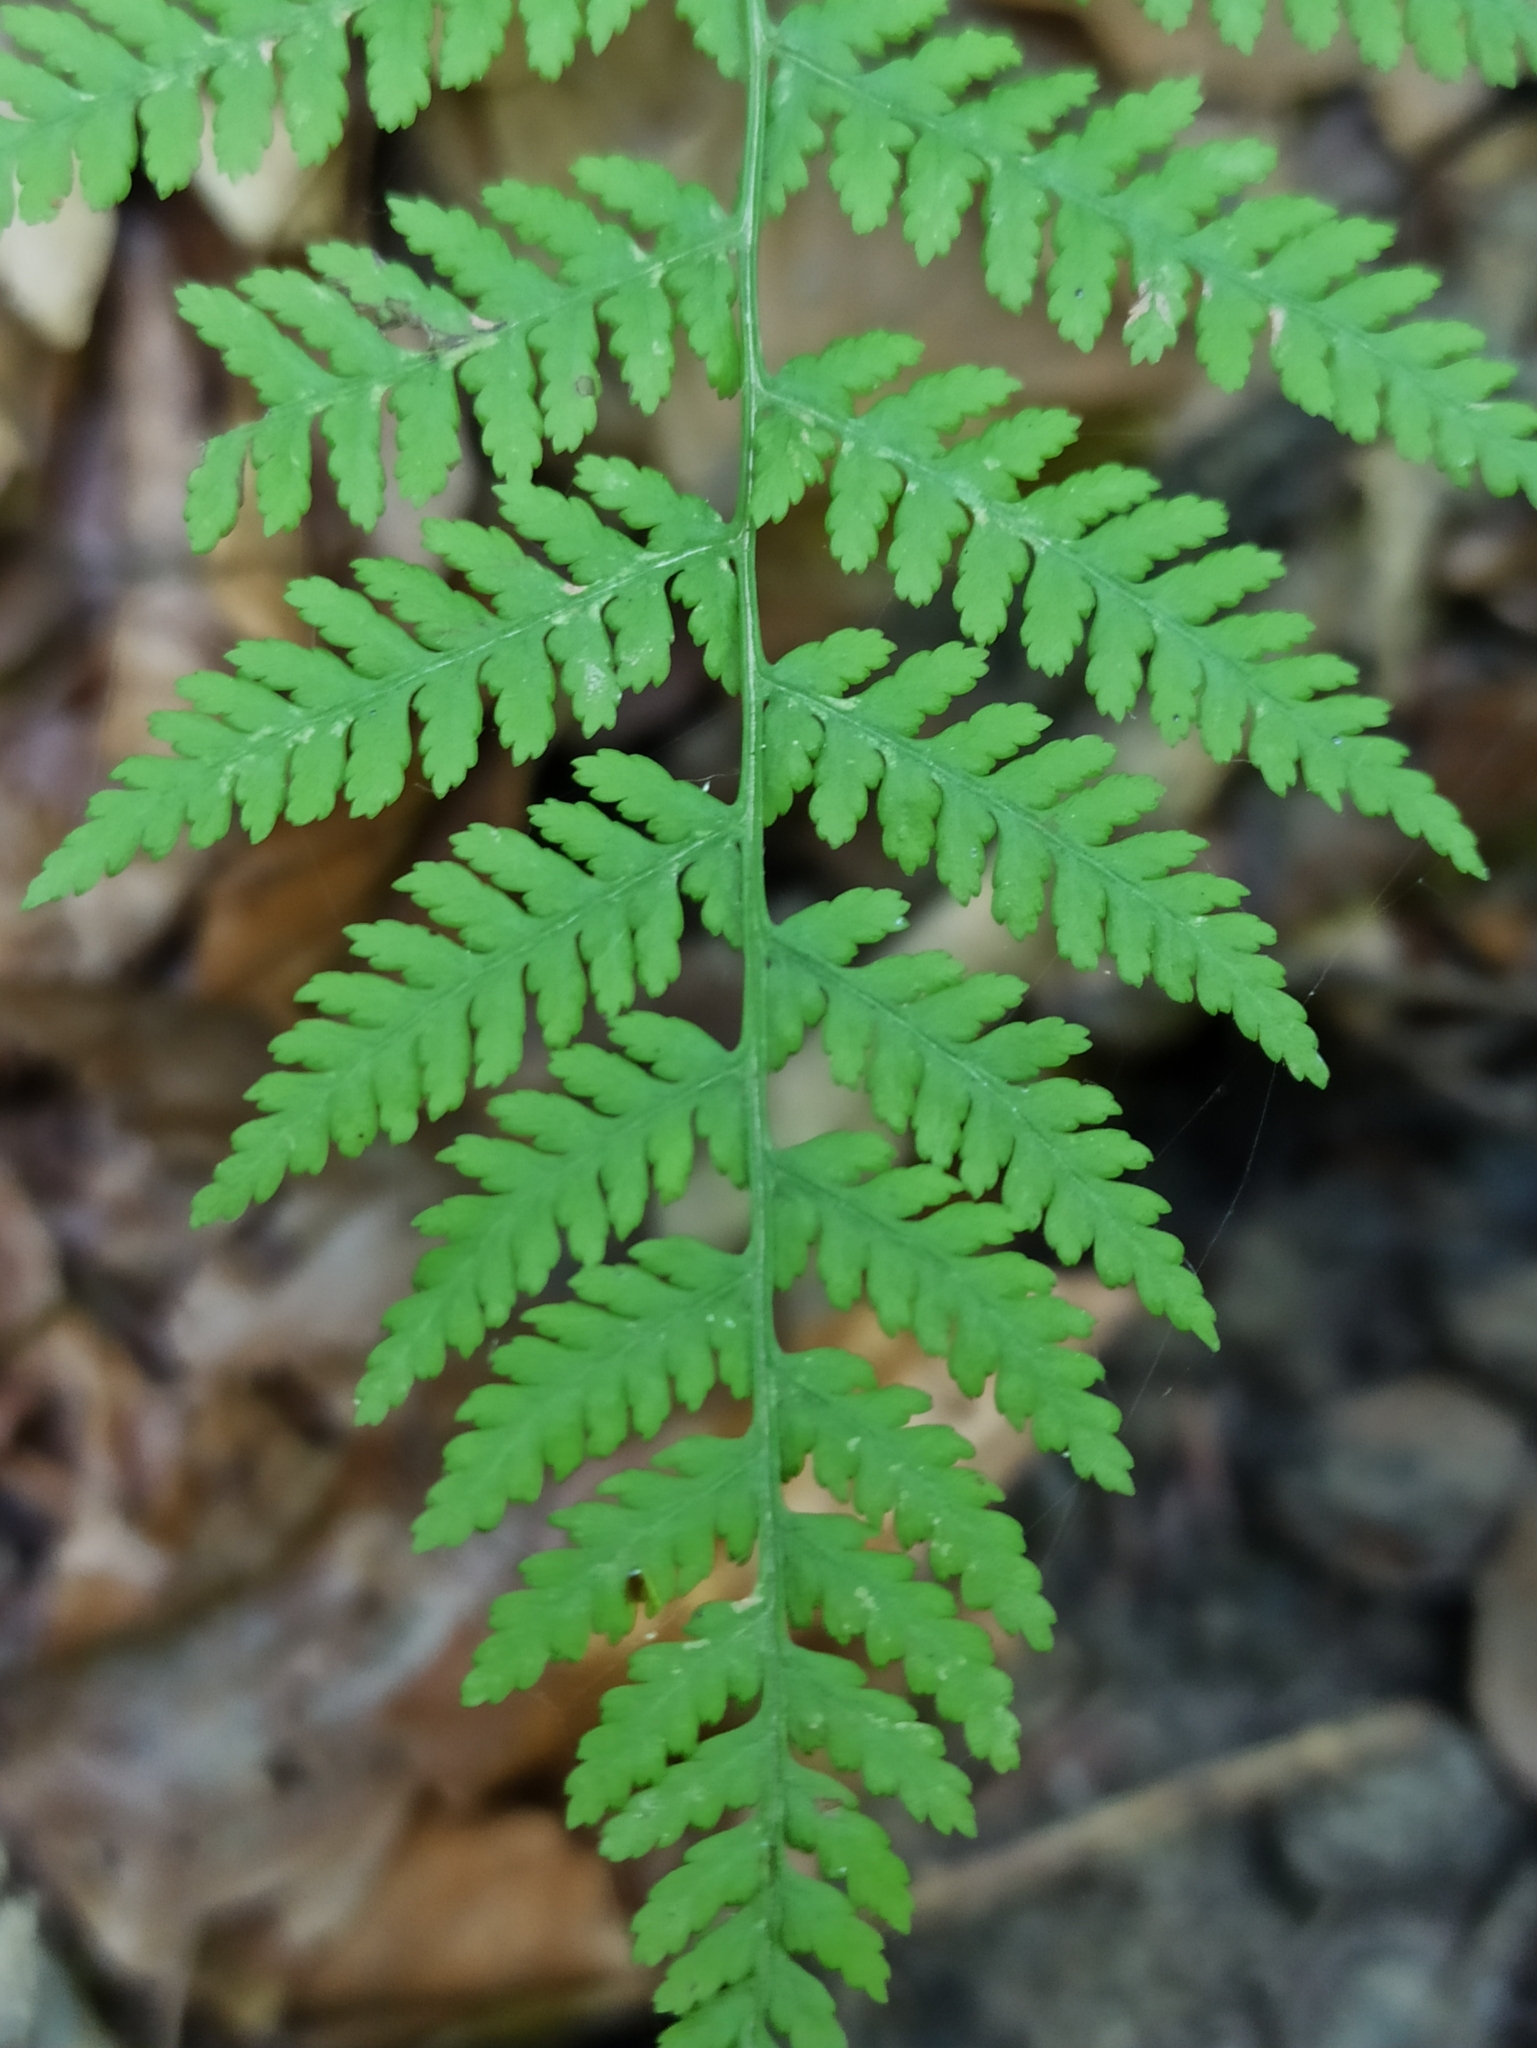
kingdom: Plantae
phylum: Tracheophyta
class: Polypodiopsida
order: Polypodiales
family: Athyriaceae
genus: Athyrium
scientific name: Athyrium filix-femina
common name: Lady fern
